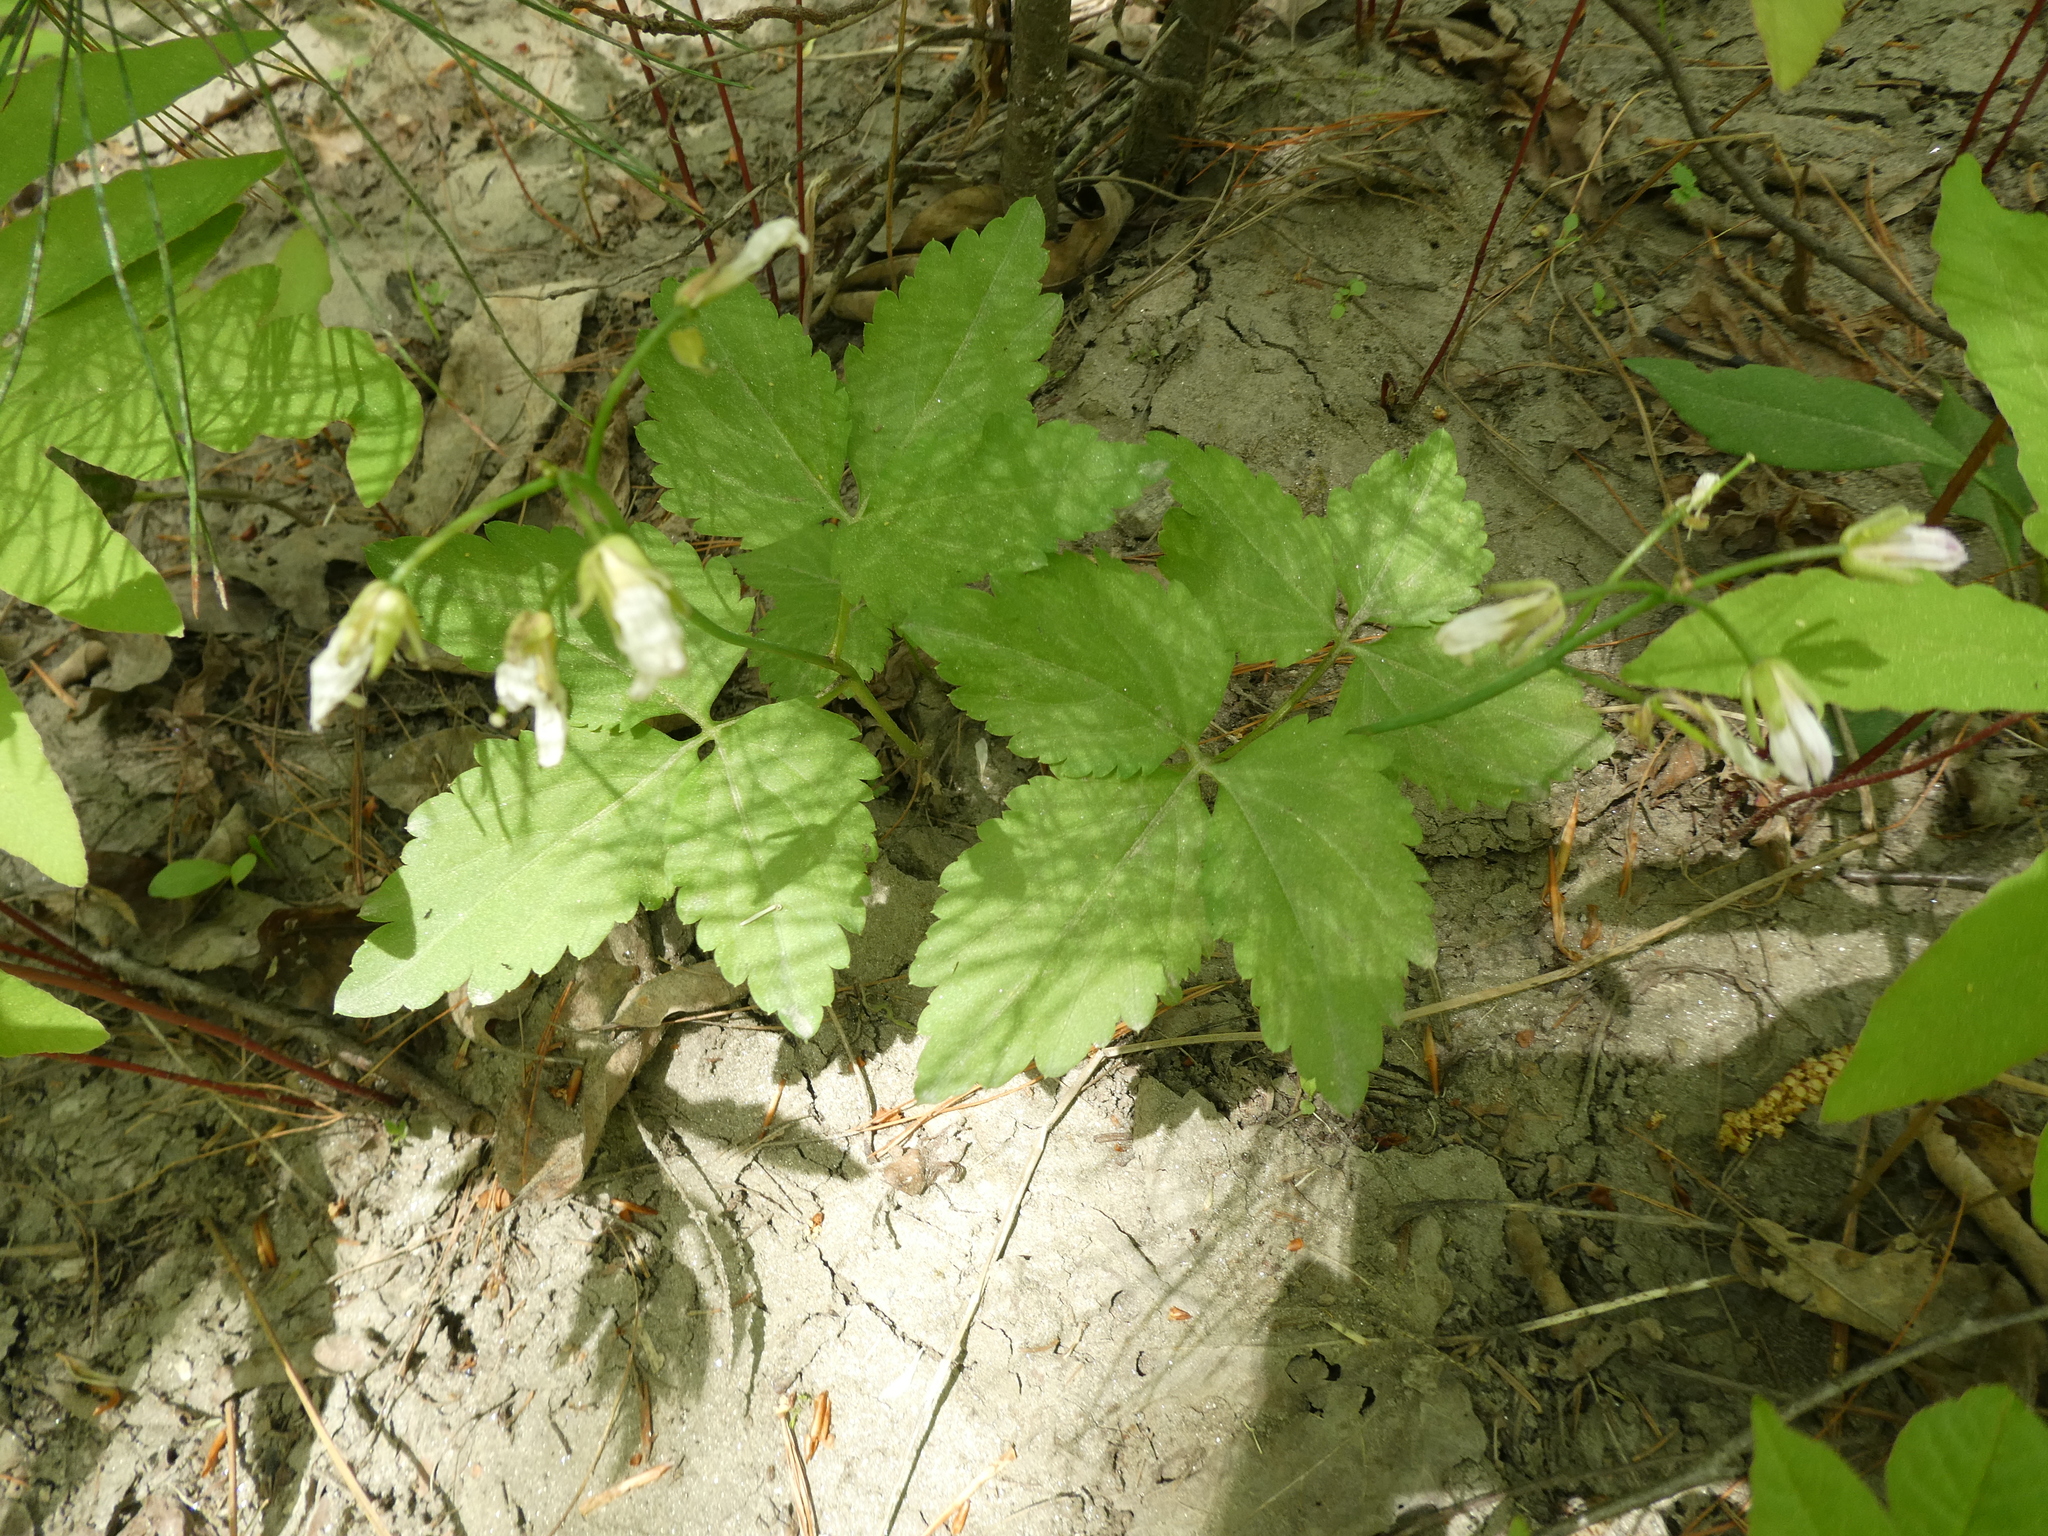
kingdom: Plantae
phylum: Tracheophyta
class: Magnoliopsida
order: Brassicales
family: Brassicaceae
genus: Cardamine
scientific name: Cardamine diphylla
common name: Broad-leaved toothwort
